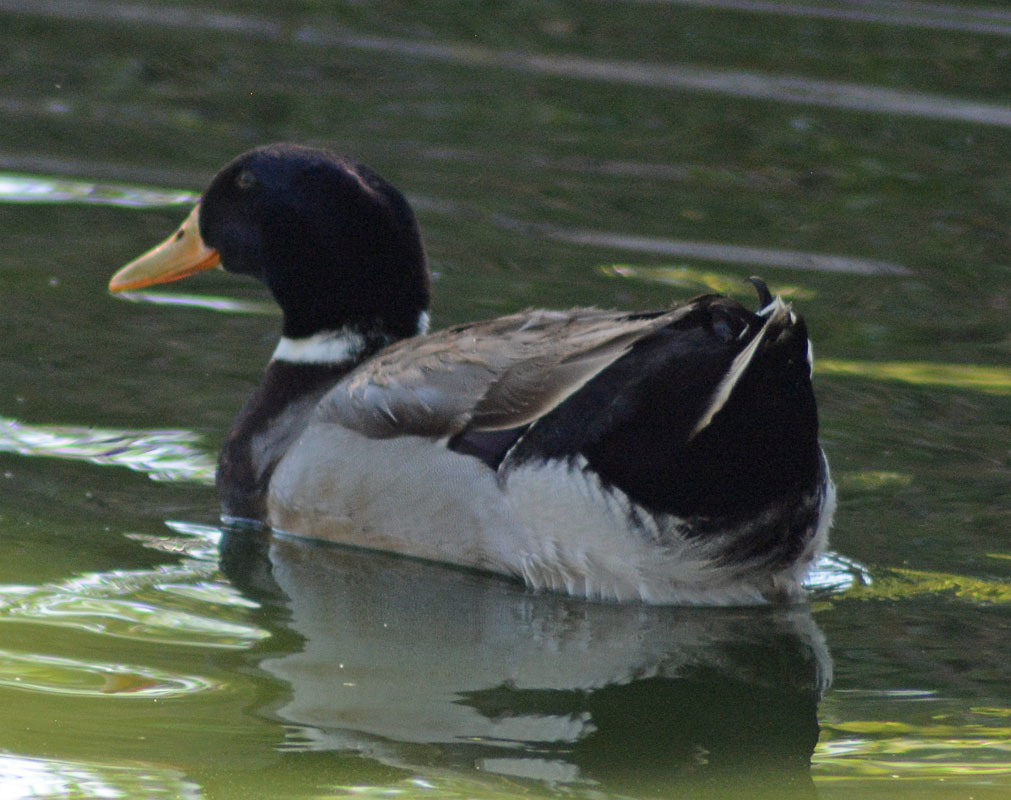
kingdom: Animalia
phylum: Chordata
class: Aves
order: Anseriformes
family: Anatidae
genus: Anas
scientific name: Anas platyrhynchos
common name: Mallard
